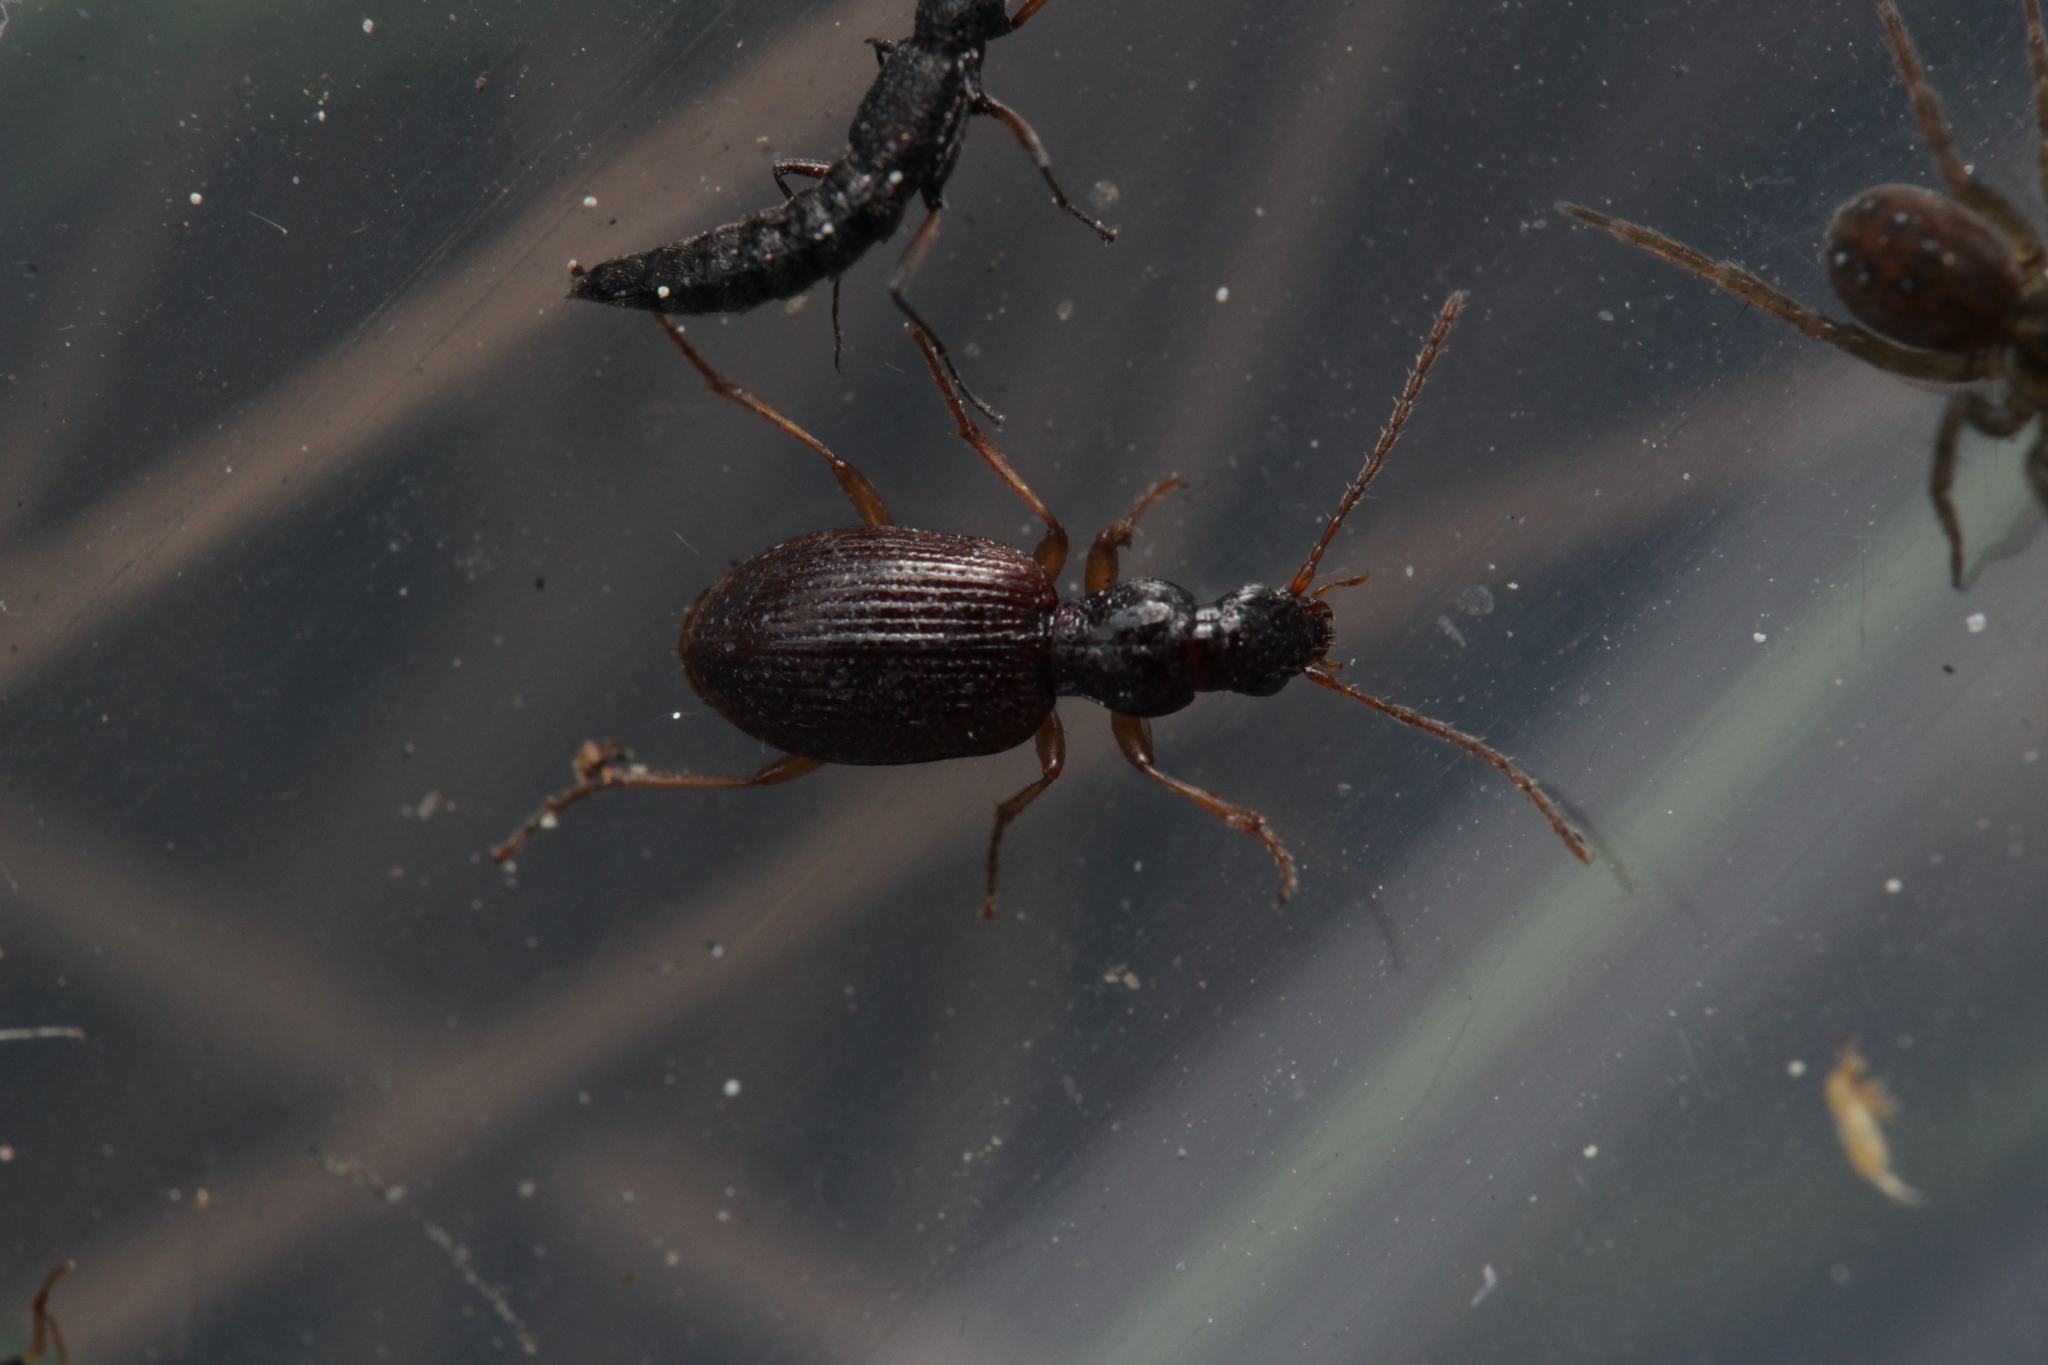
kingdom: Animalia
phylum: Arthropoda
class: Insecta
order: Coleoptera
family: Carabidae
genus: Oxypselaphus
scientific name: Oxypselaphus obscurus
